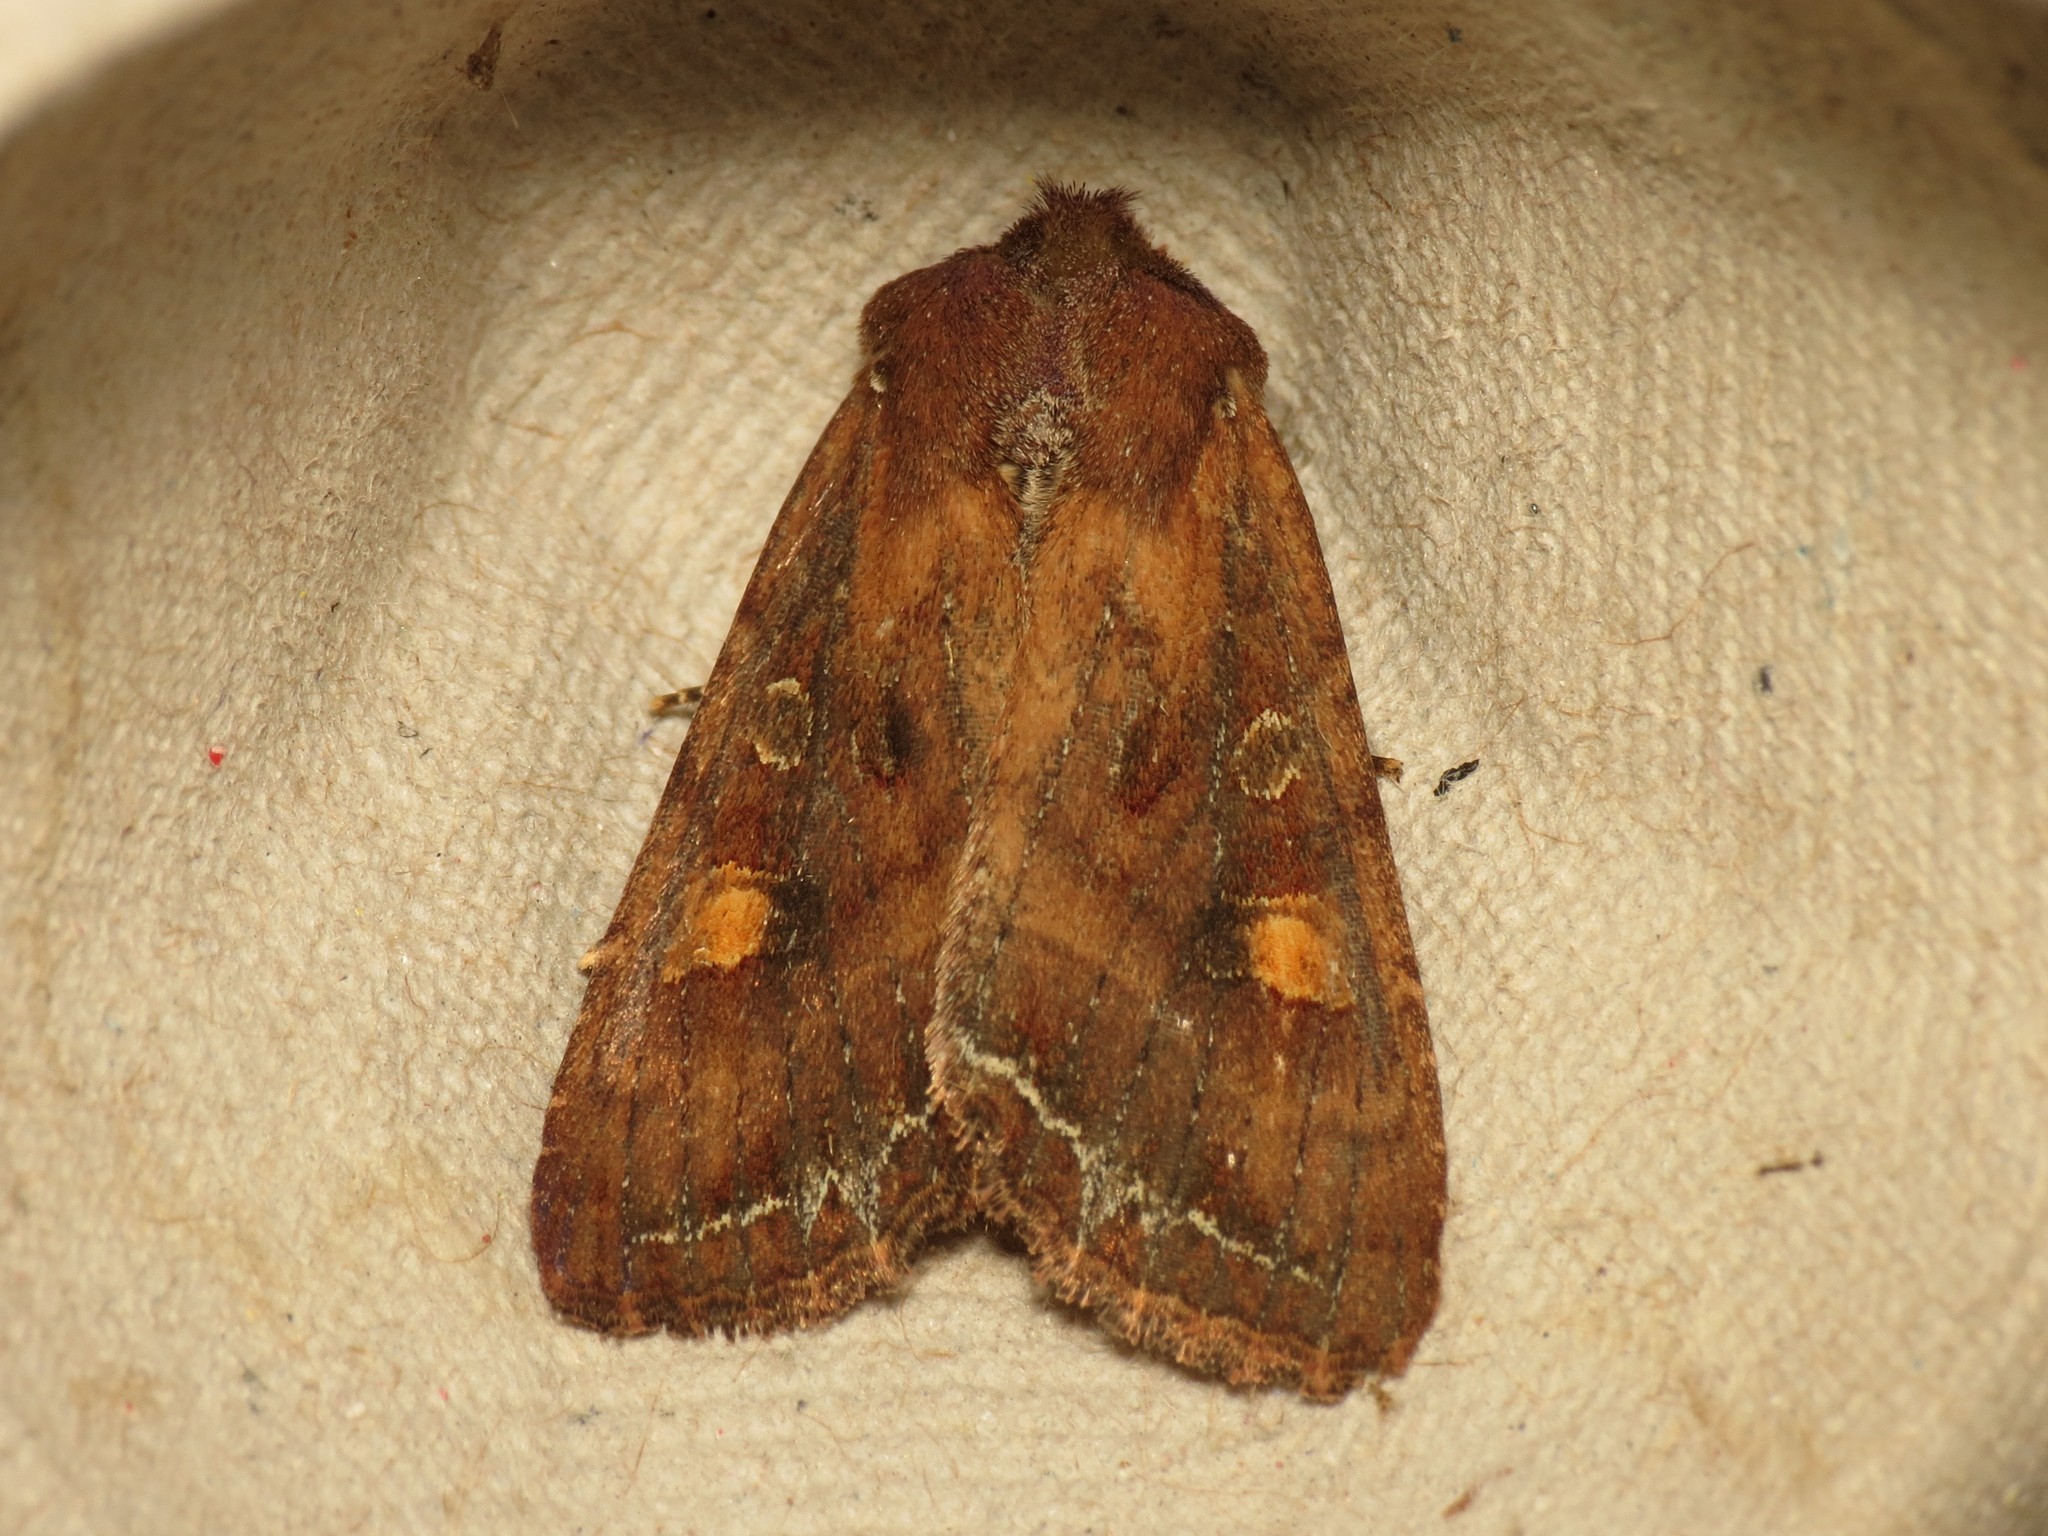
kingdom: Animalia
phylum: Arthropoda
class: Insecta
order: Lepidoptera
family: Noctuidae
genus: Lacanobia
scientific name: Lacanobia oleracea
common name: Bright-line brown-eye
